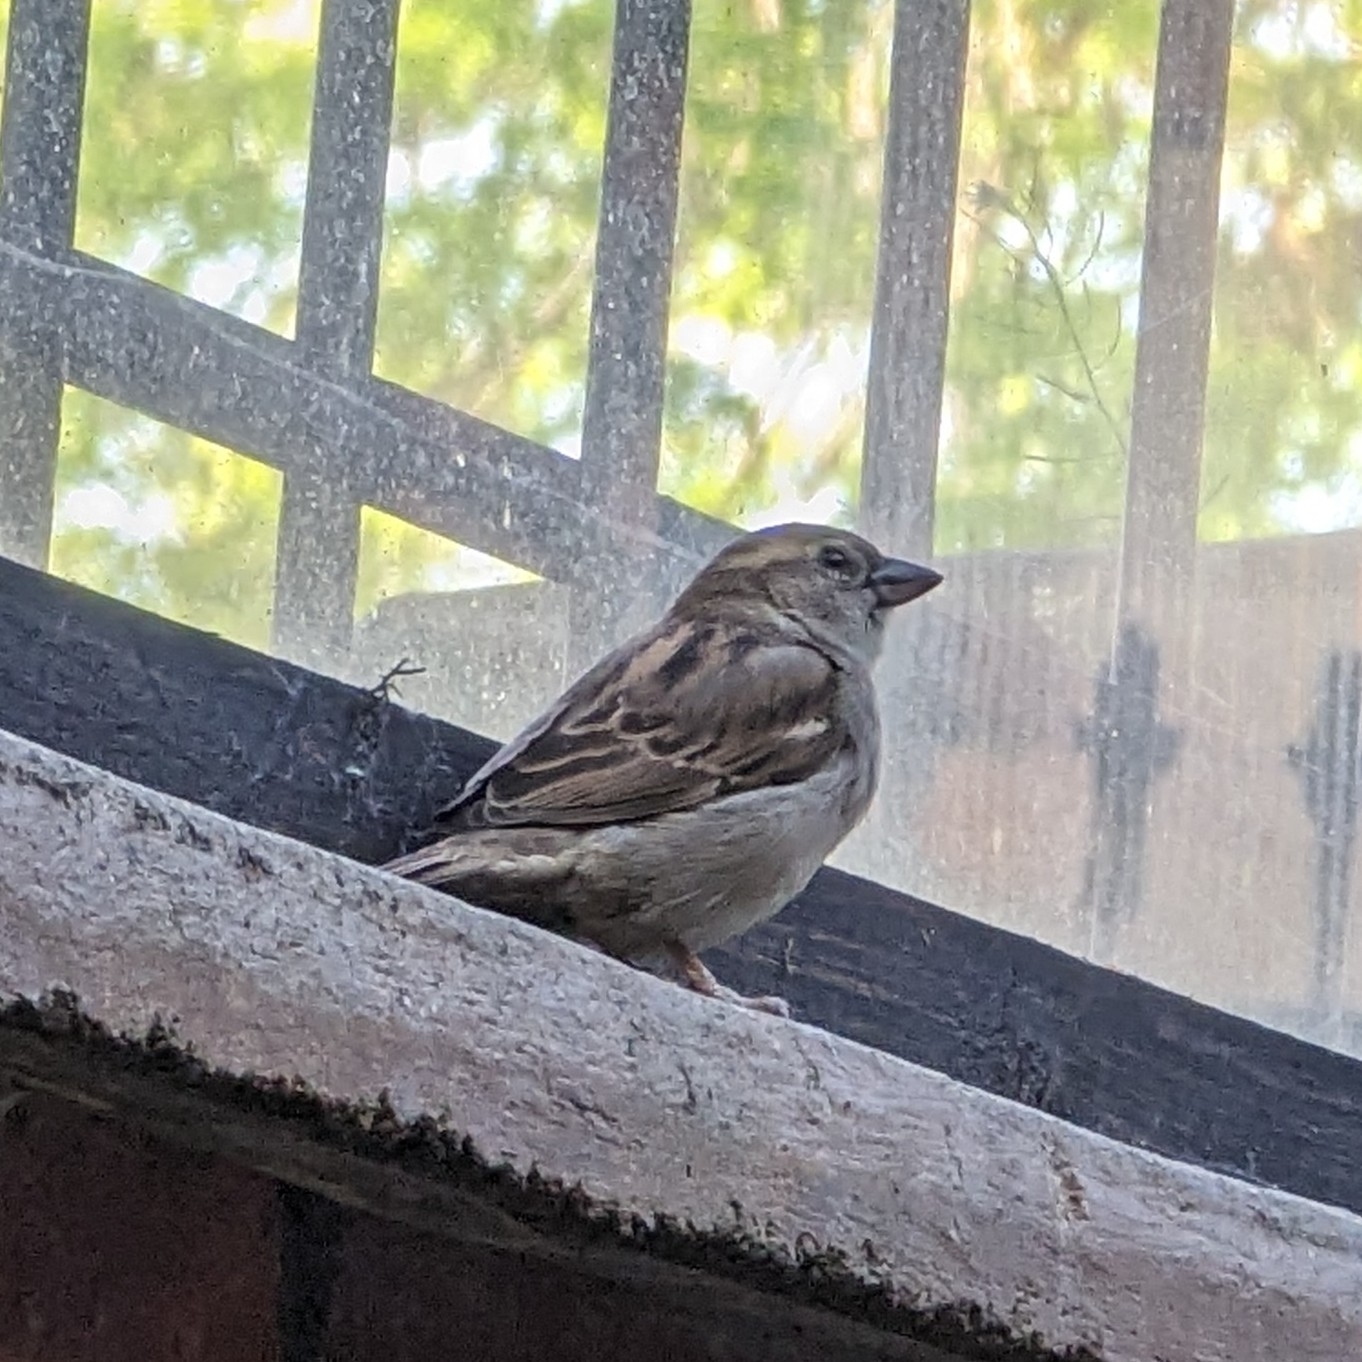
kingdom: Animalia
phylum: Chordata
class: Aves
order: Passeriformes
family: Passeridae
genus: Passer
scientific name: Passer domesticus
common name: House sparrow
